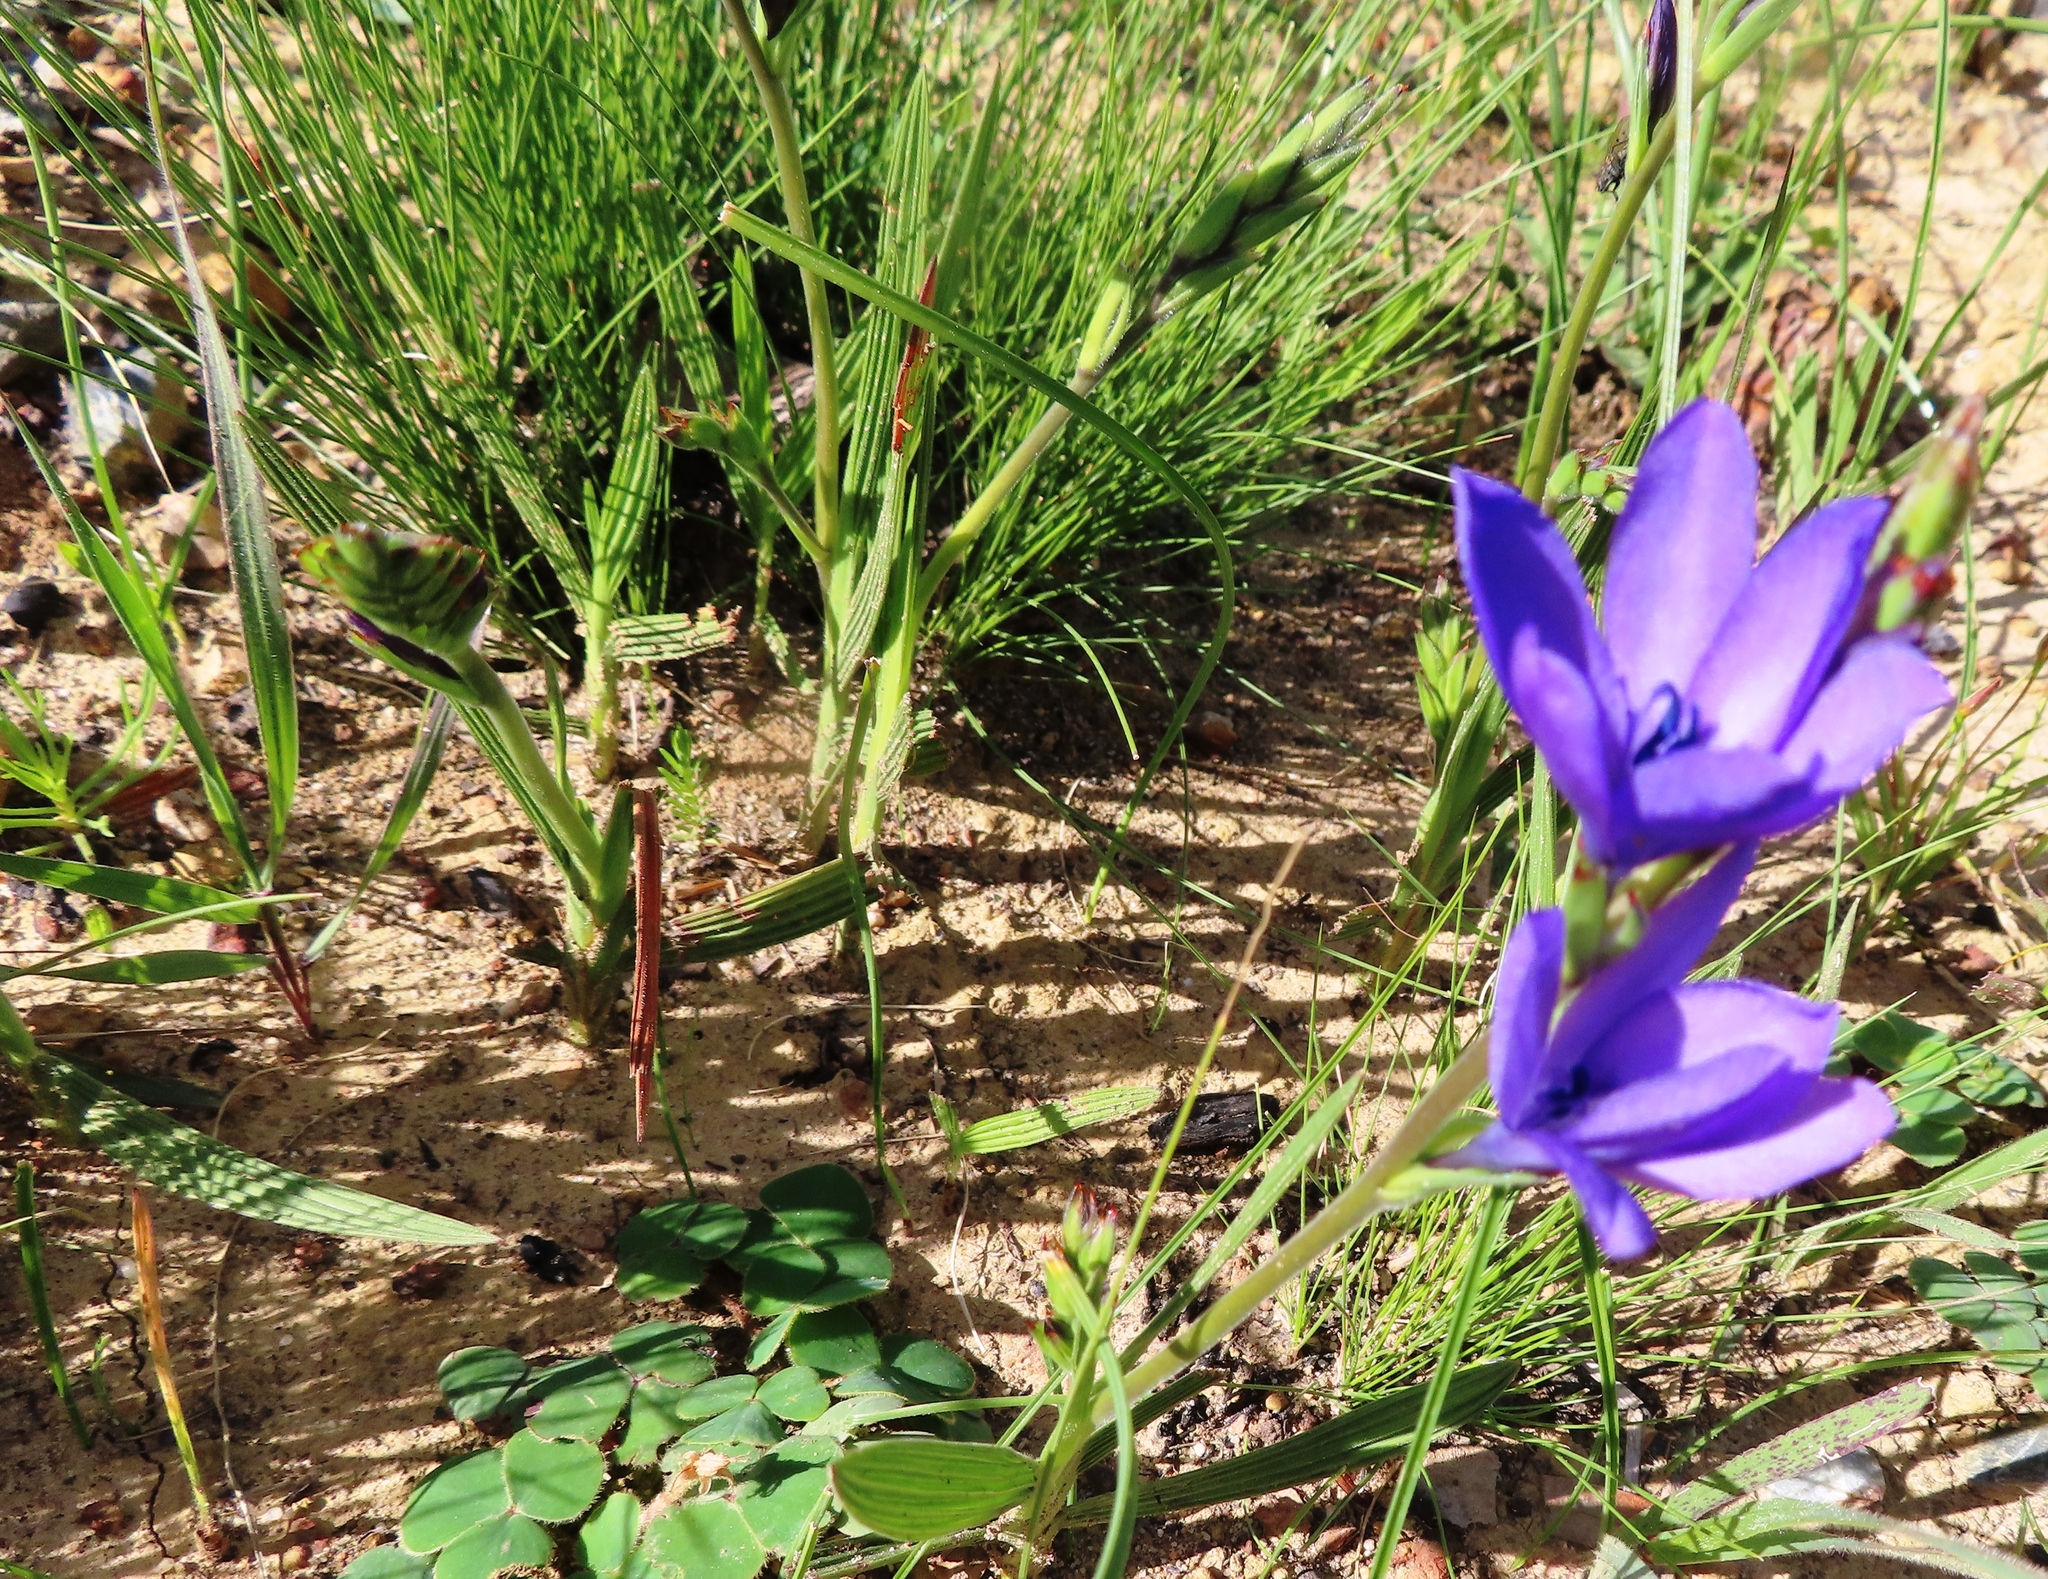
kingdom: Plantae
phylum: Tracheophyta
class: Liliopsida
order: Asparagales
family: Iridaceae
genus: Babiana
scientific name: Babiana angustifolia
